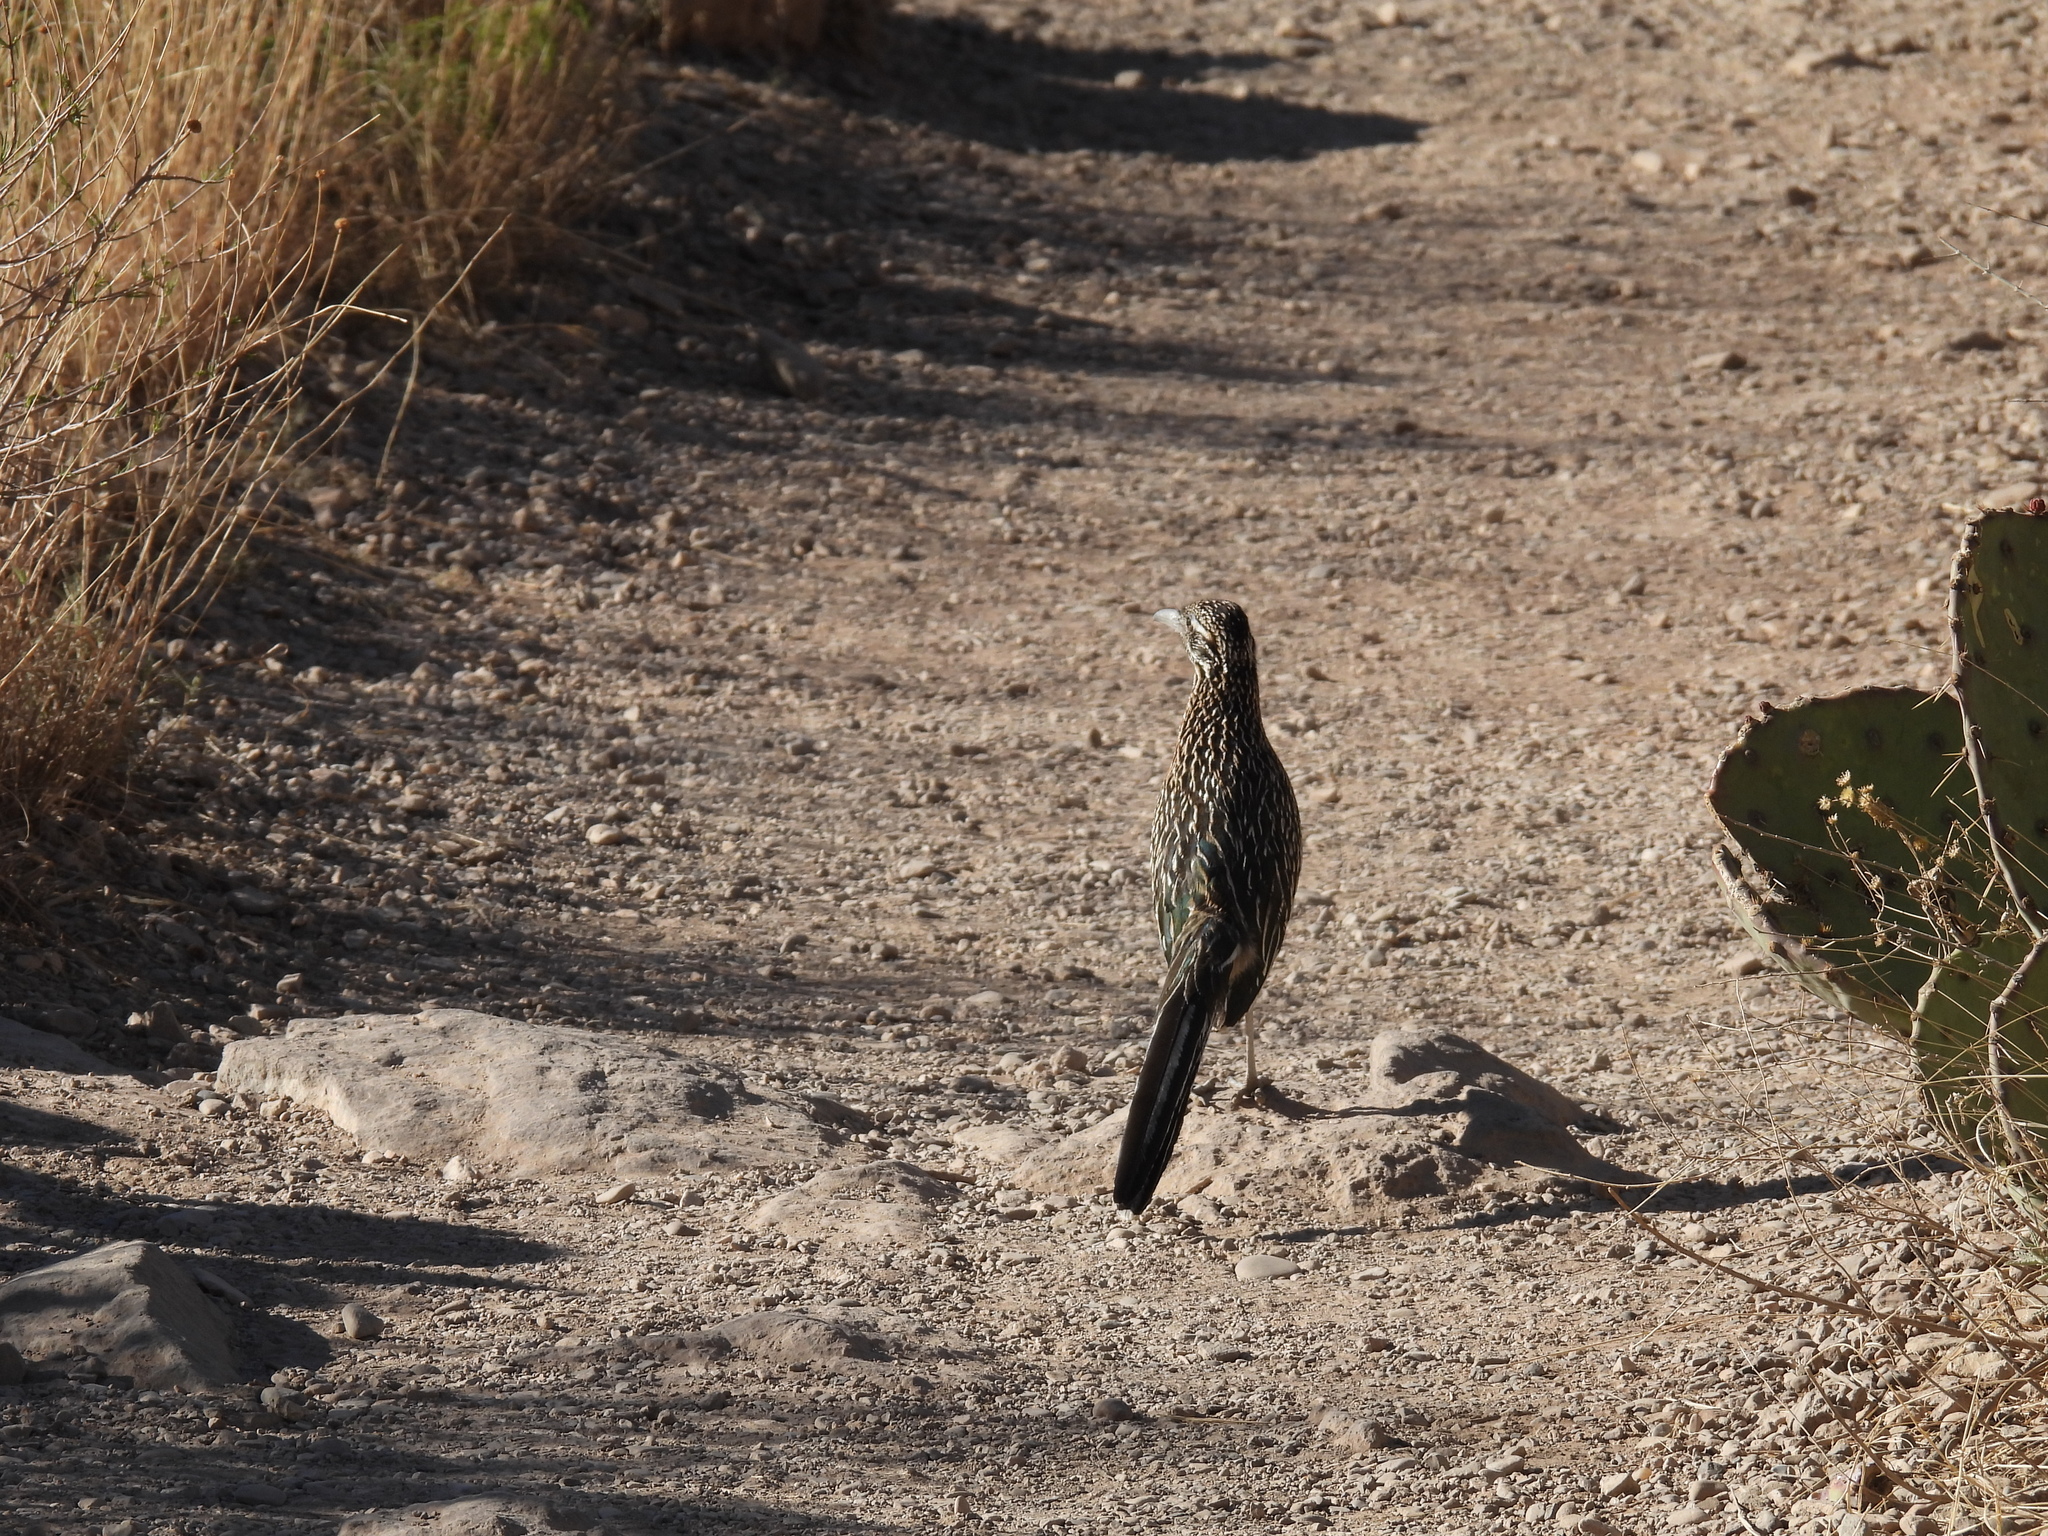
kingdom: Animalia
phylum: Chordata
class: Aves
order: Cuculiformes
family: Cuculidae
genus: Geococcyx
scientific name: Geococcyx californianus
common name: Greater roadrunner
